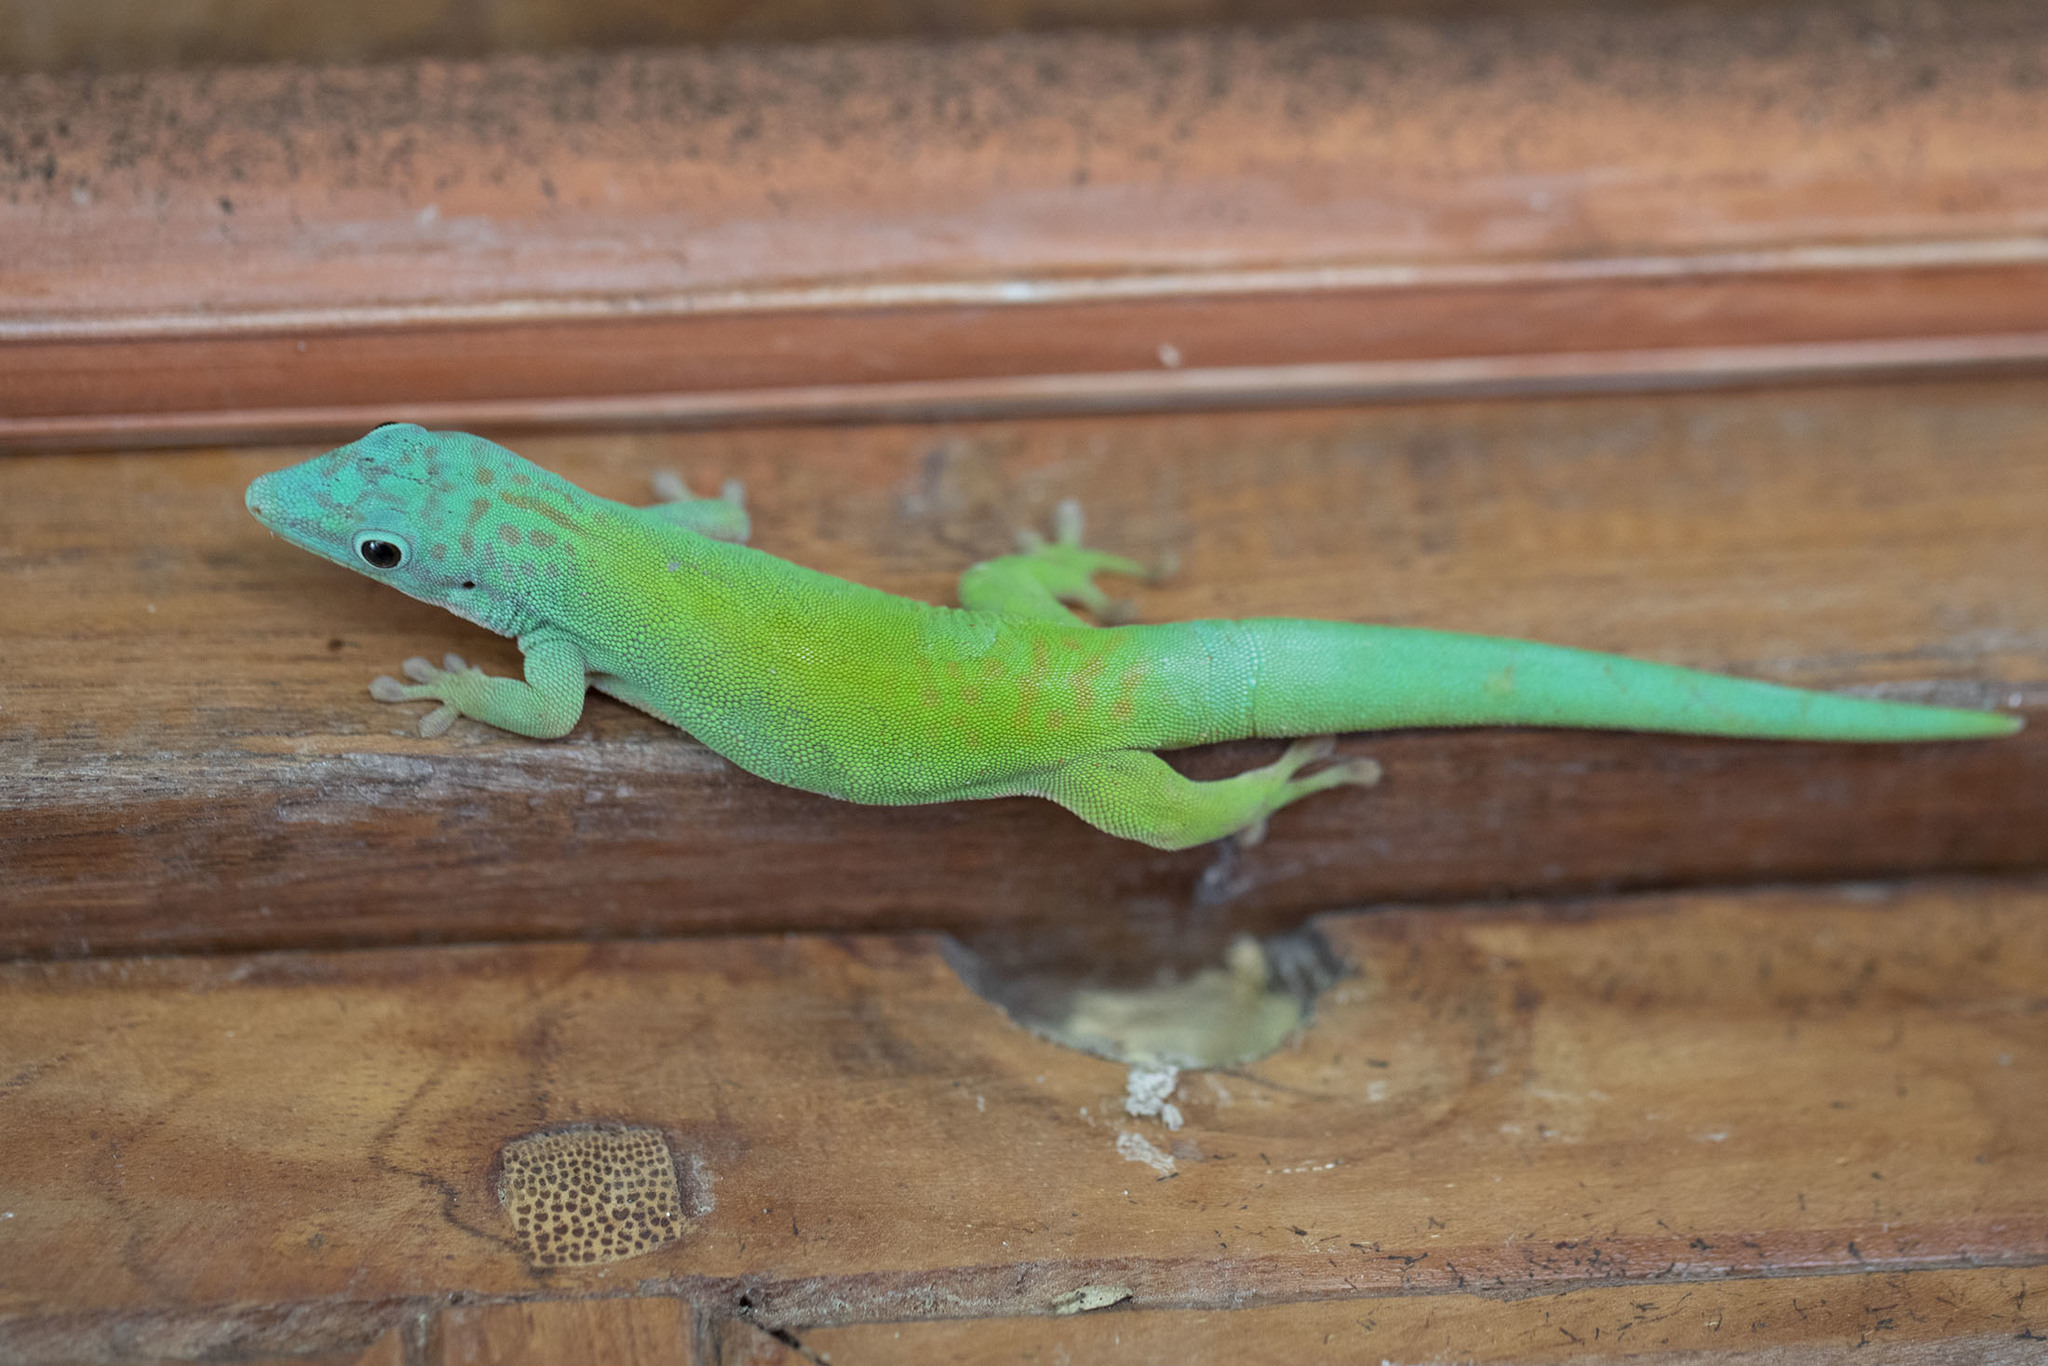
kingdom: Animalia
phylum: Chordata
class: Squamata
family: Gekkonidae
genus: Phelsuma
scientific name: Phelsuma andamanensis
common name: Andaman day gecko
